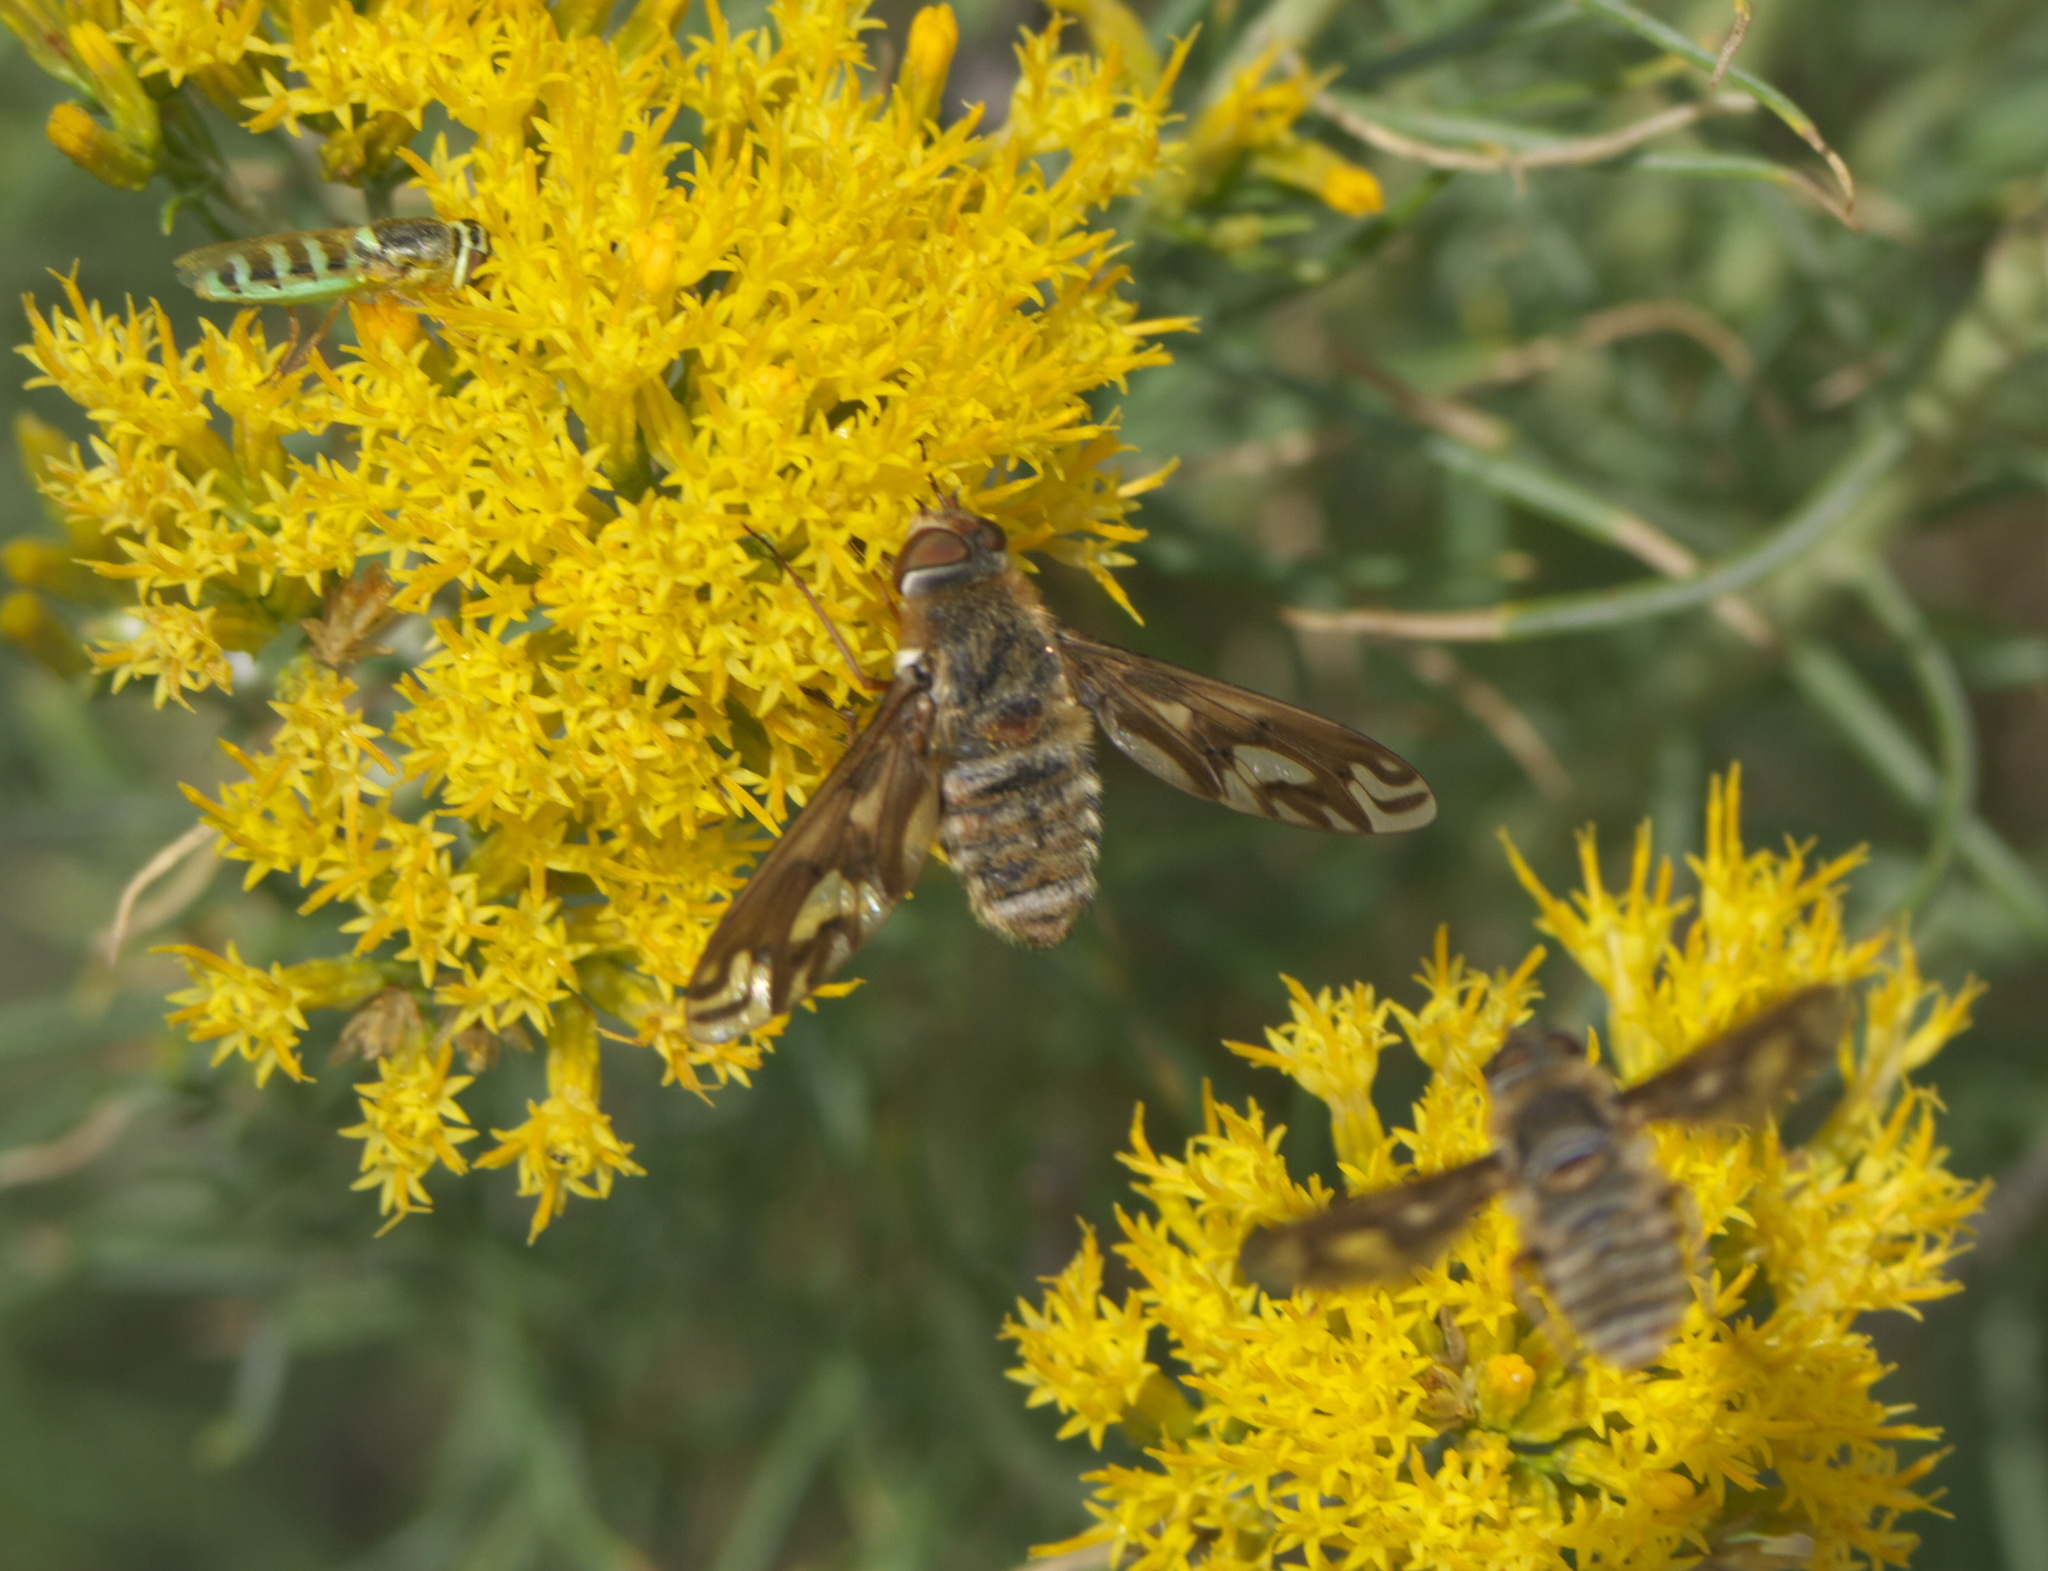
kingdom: Animalia
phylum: Arthropoda
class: Insecta
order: Diptera
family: Bombyliidae
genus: Poecilanthrax
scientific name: Poecilanthrax willistonii
